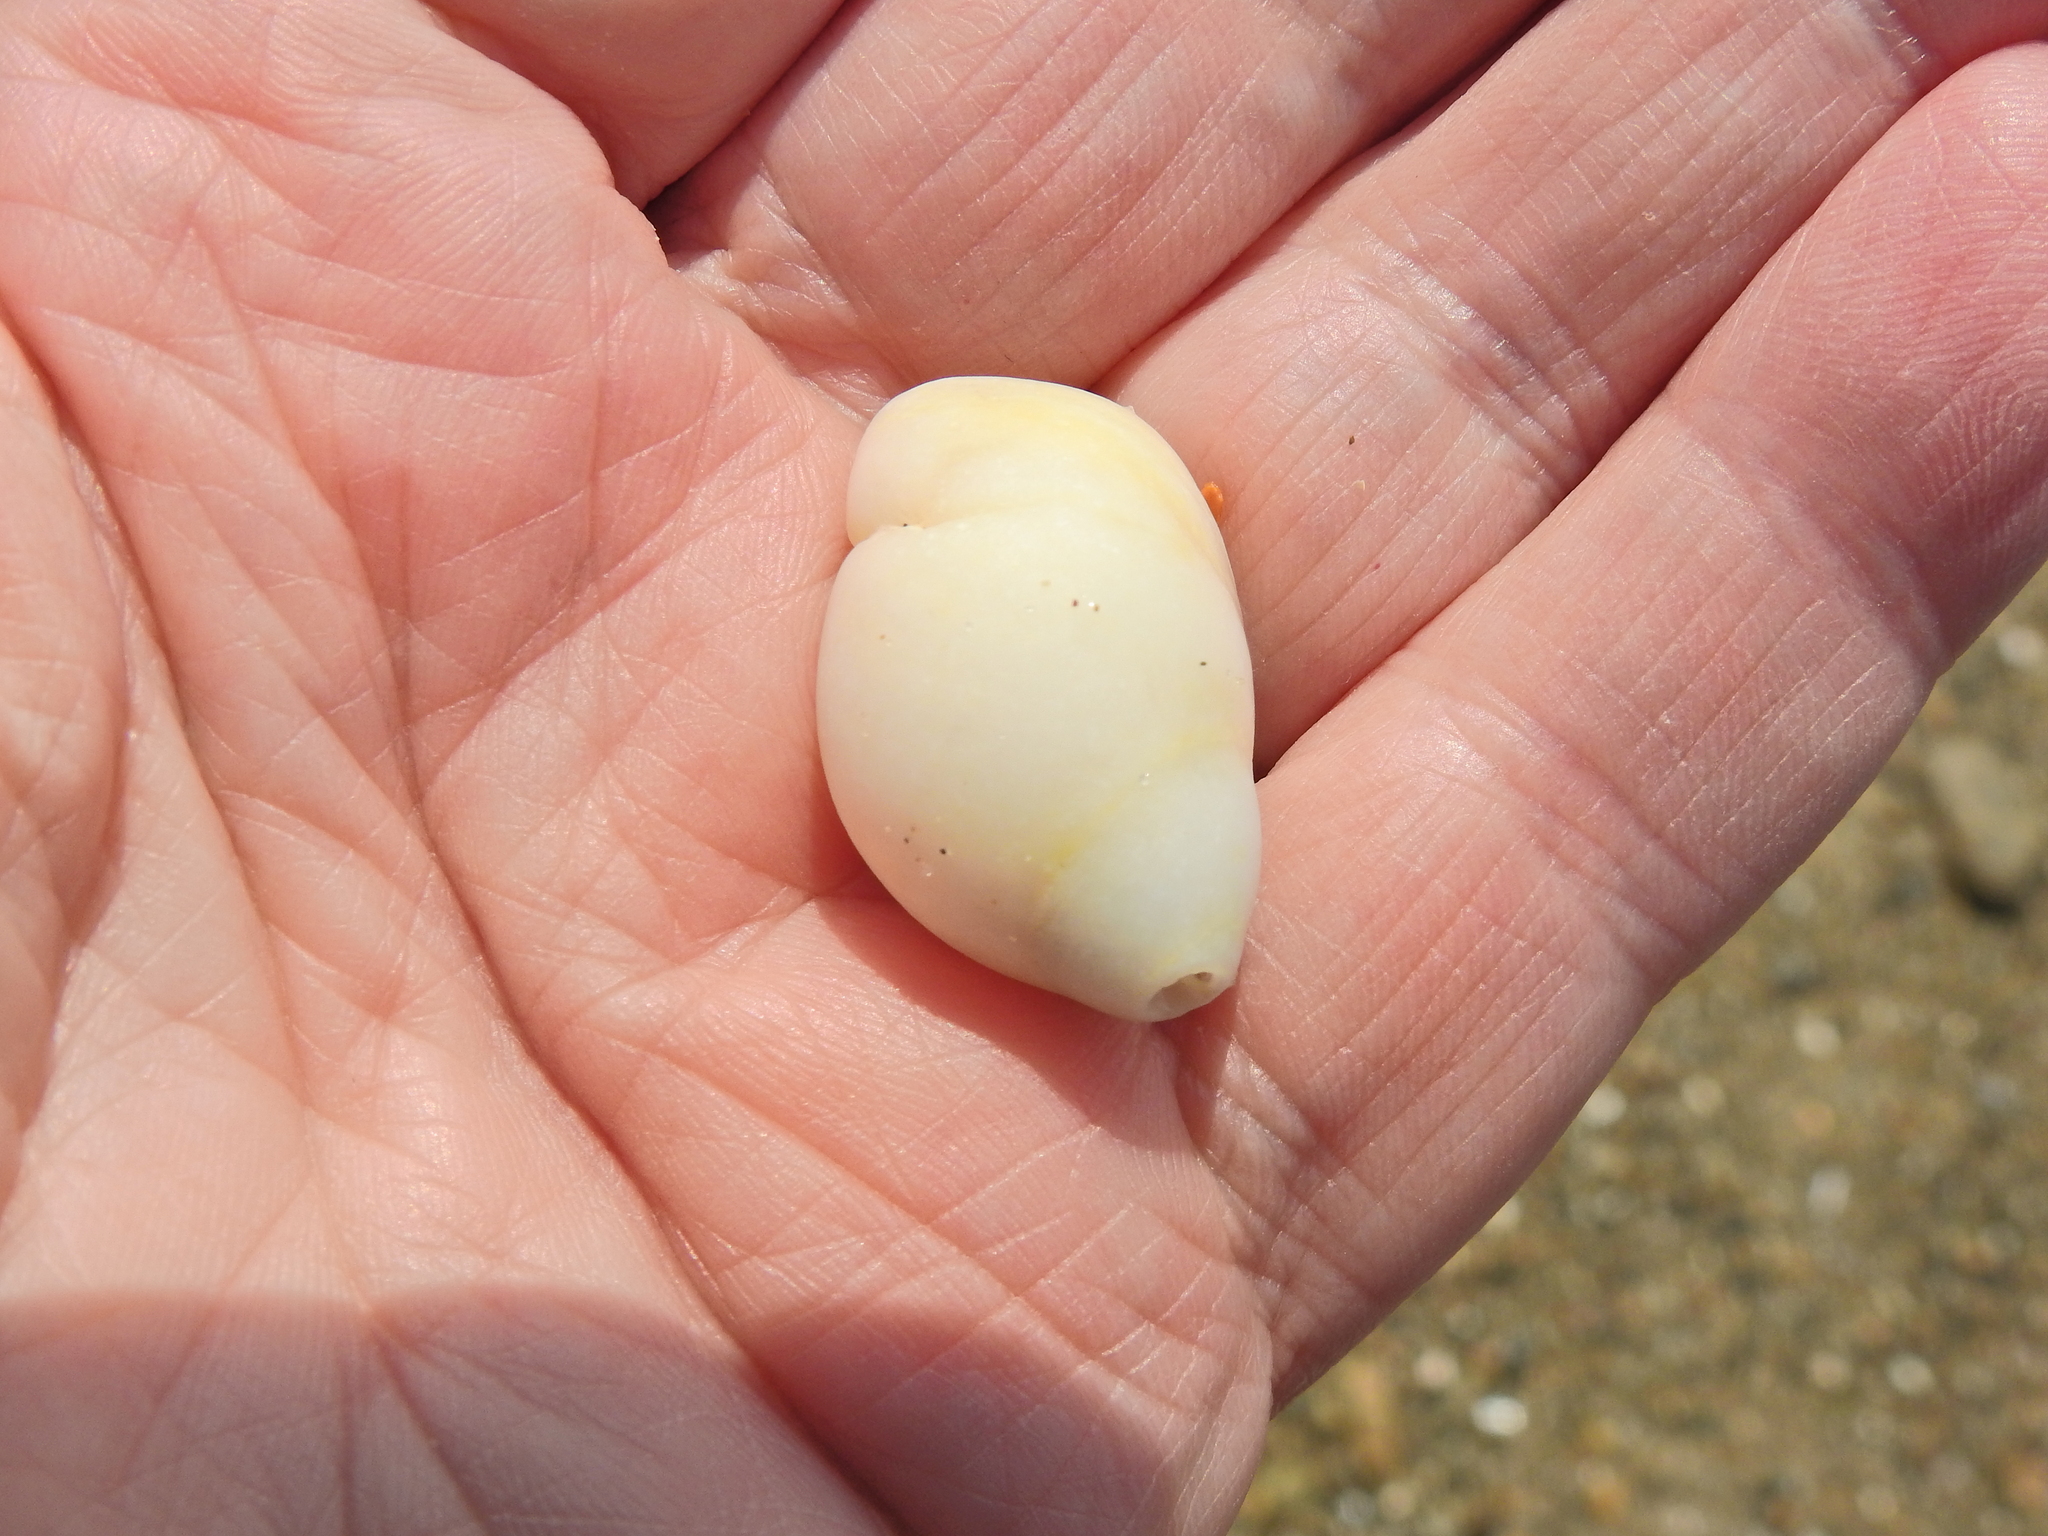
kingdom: Animalia
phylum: Mollusca
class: Gastropoda
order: Neogastropoda
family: Muricidae
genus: Nucella
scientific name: Nucella lapillus
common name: Dog whelk
